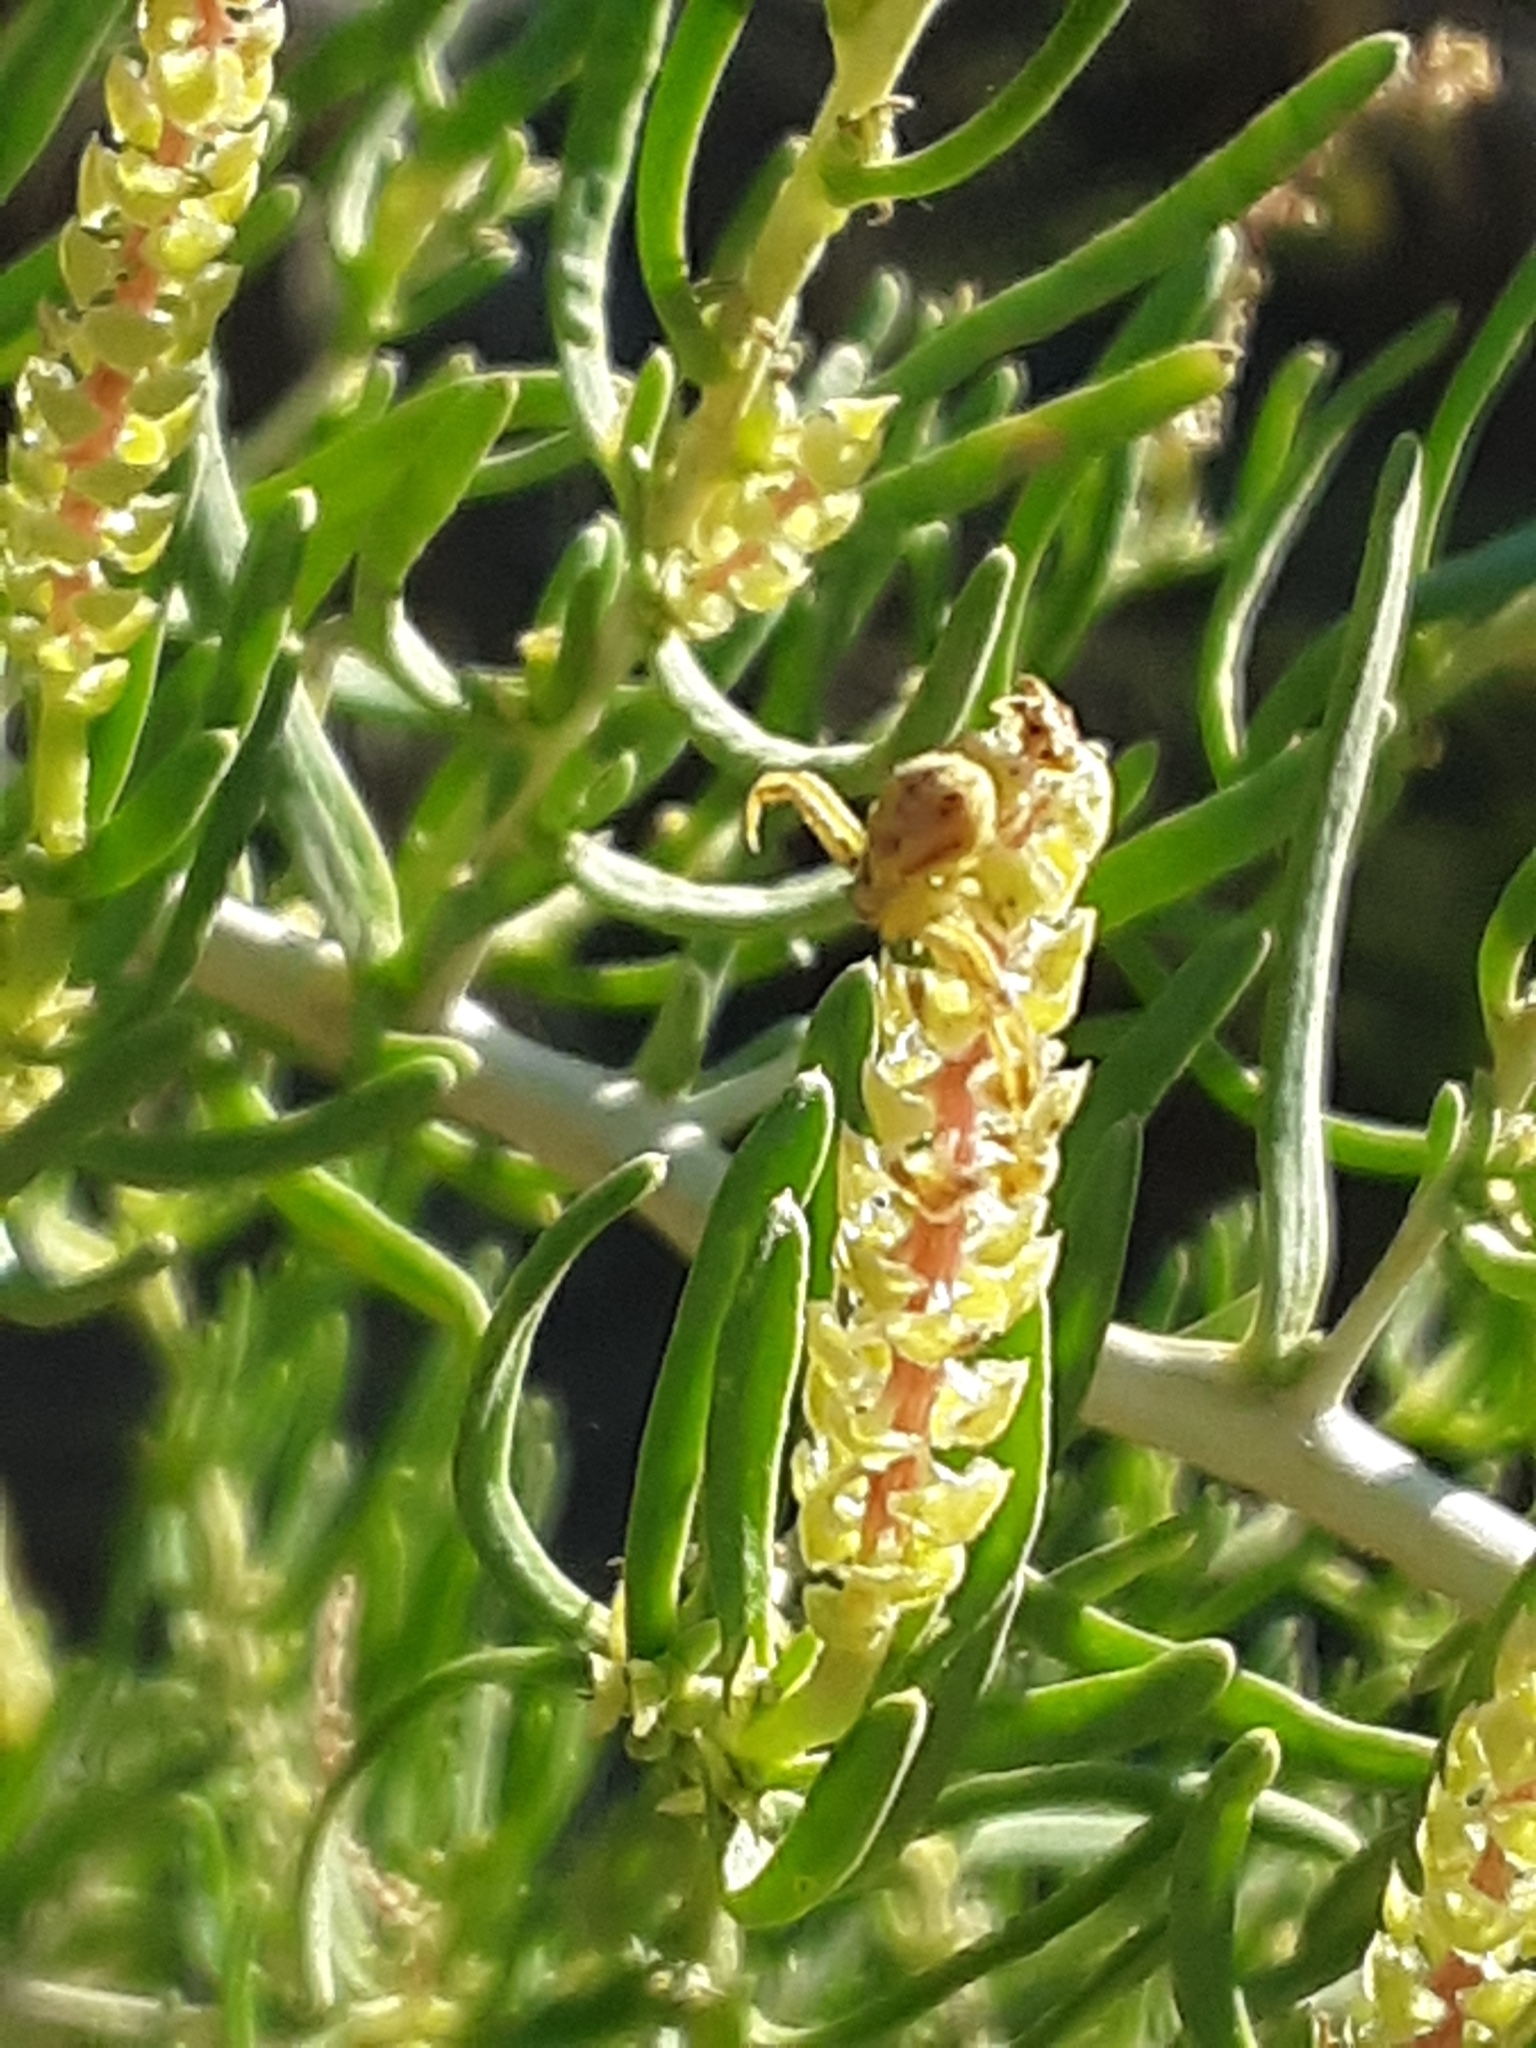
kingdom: Plantae
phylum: Tracheophyta
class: Magnoliopsida
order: Caryophyllales
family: Sarcobataceae
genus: Sarcobatus
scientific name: Sarcobatus vermiculatus
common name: Greasewood
